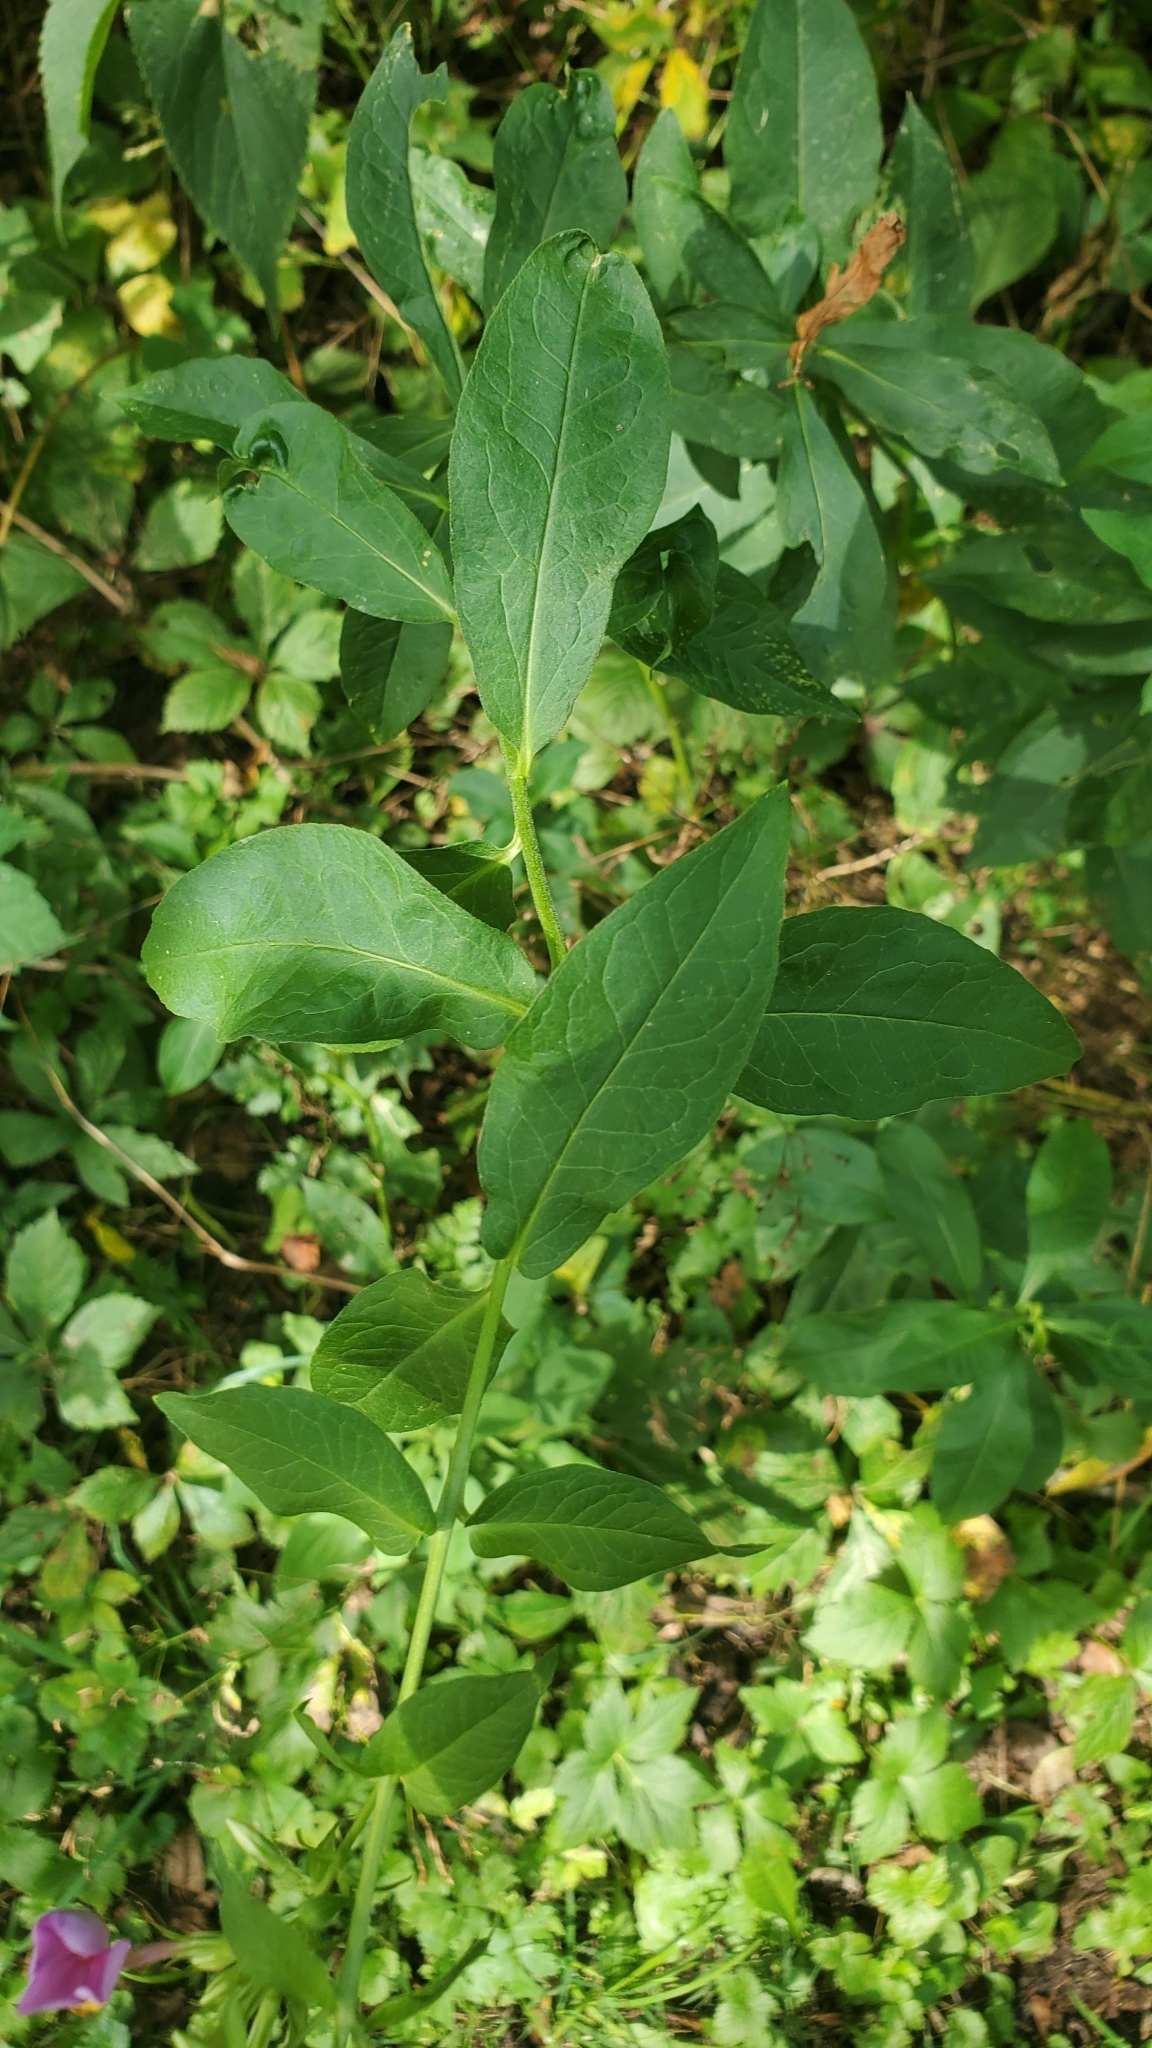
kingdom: Plantae
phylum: Tracheophyta
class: Magnoliopsida
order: Ericales
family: Polemoniaceae
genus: Phlox
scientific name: Phlox paniculata
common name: Fall phlox
